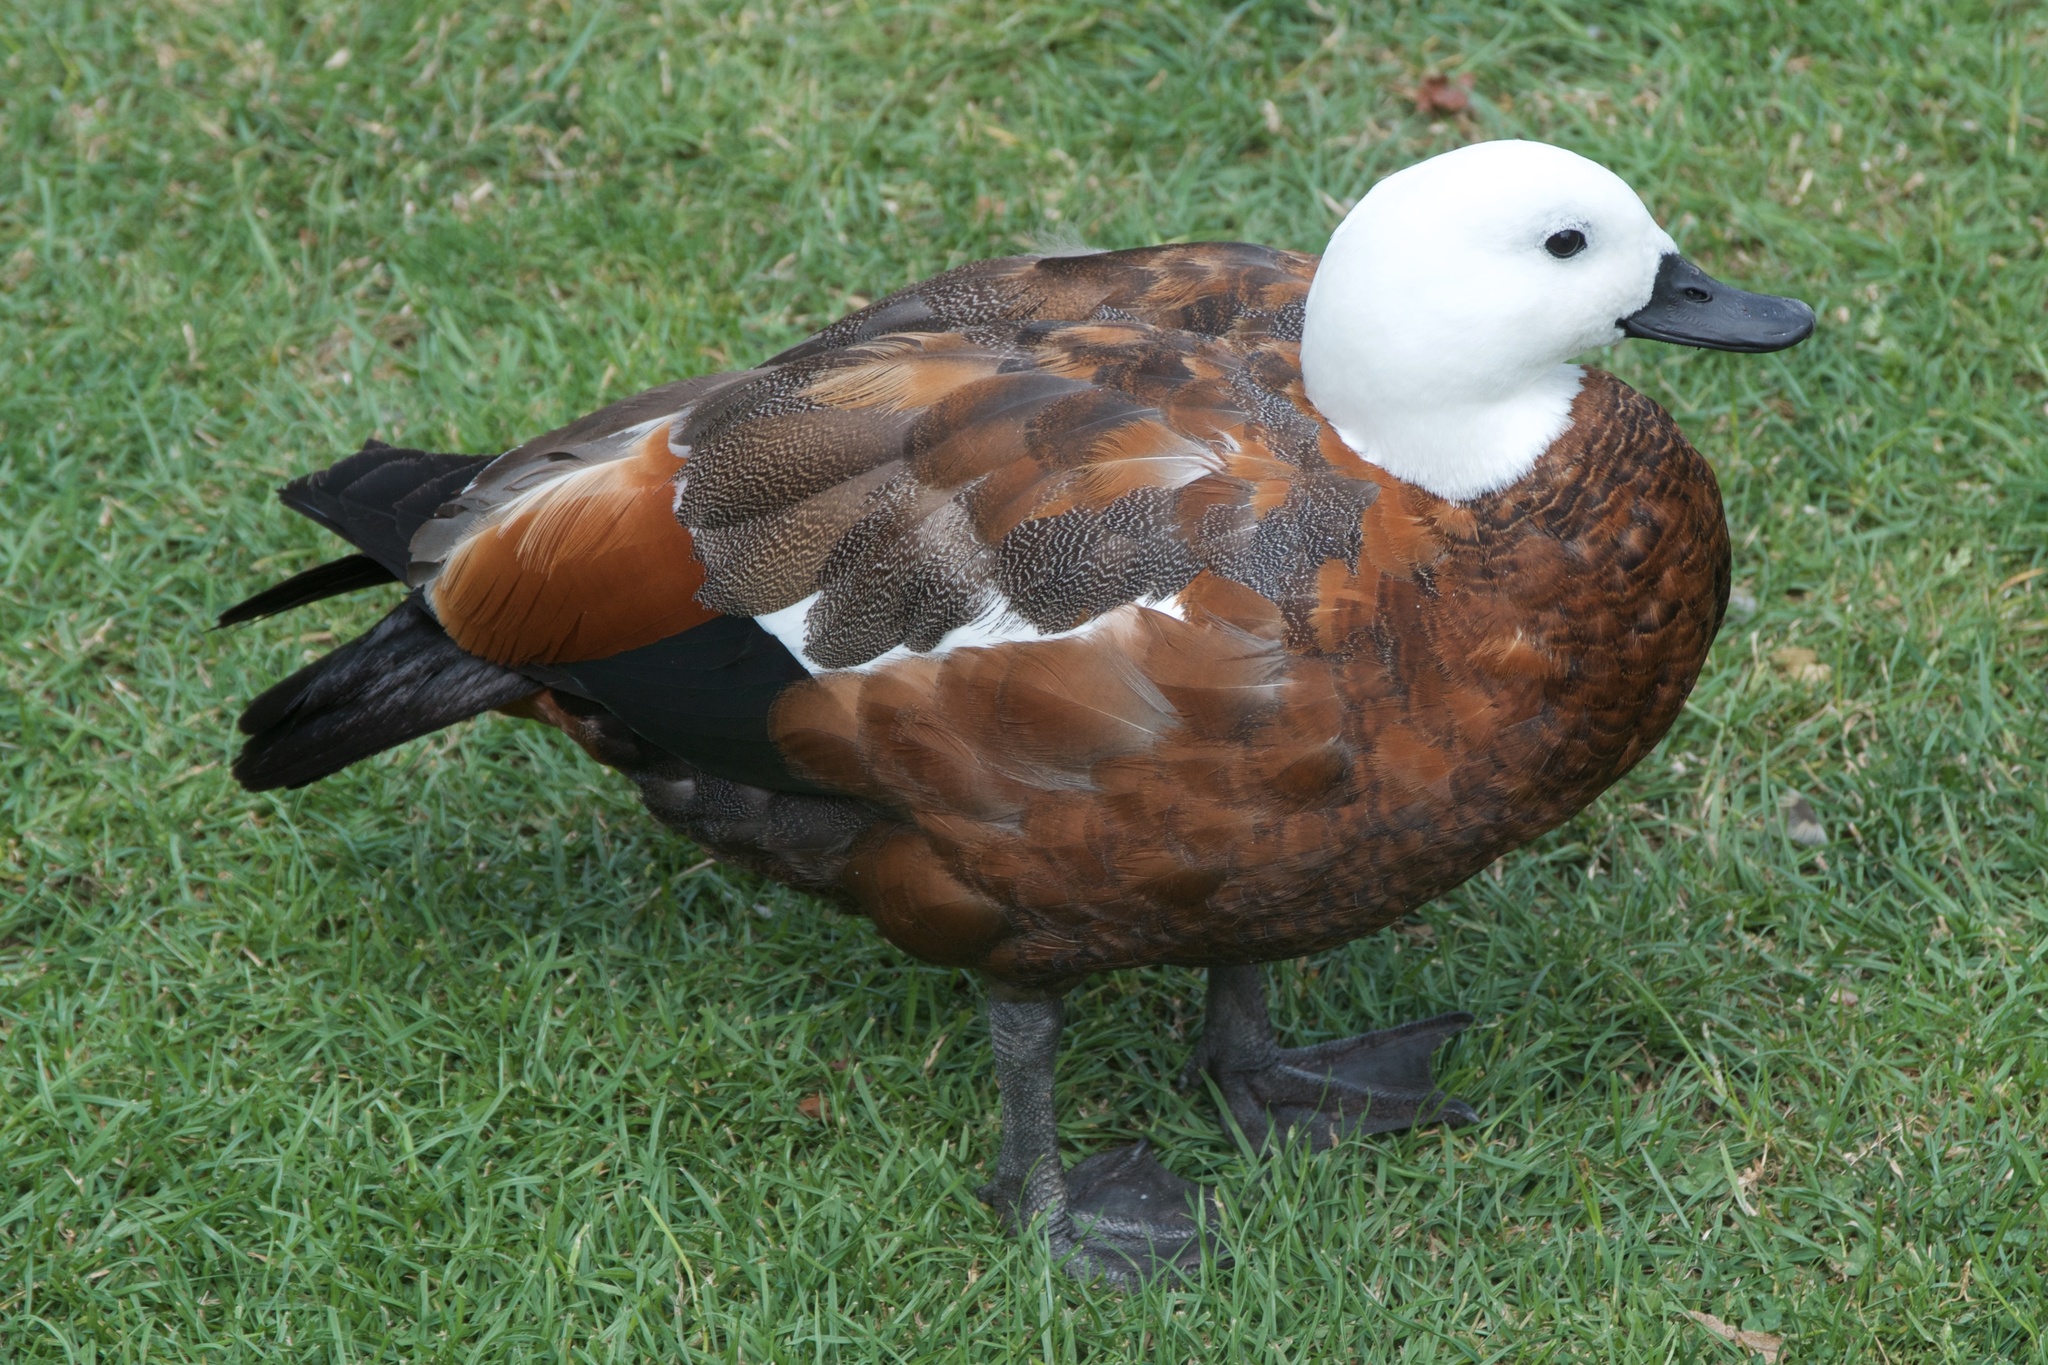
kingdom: Animalia
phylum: Chordata
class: Aves
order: Anseriformes
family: Anatidae
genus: Tadorna
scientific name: Tadorna variegata
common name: Paradise shelduck
